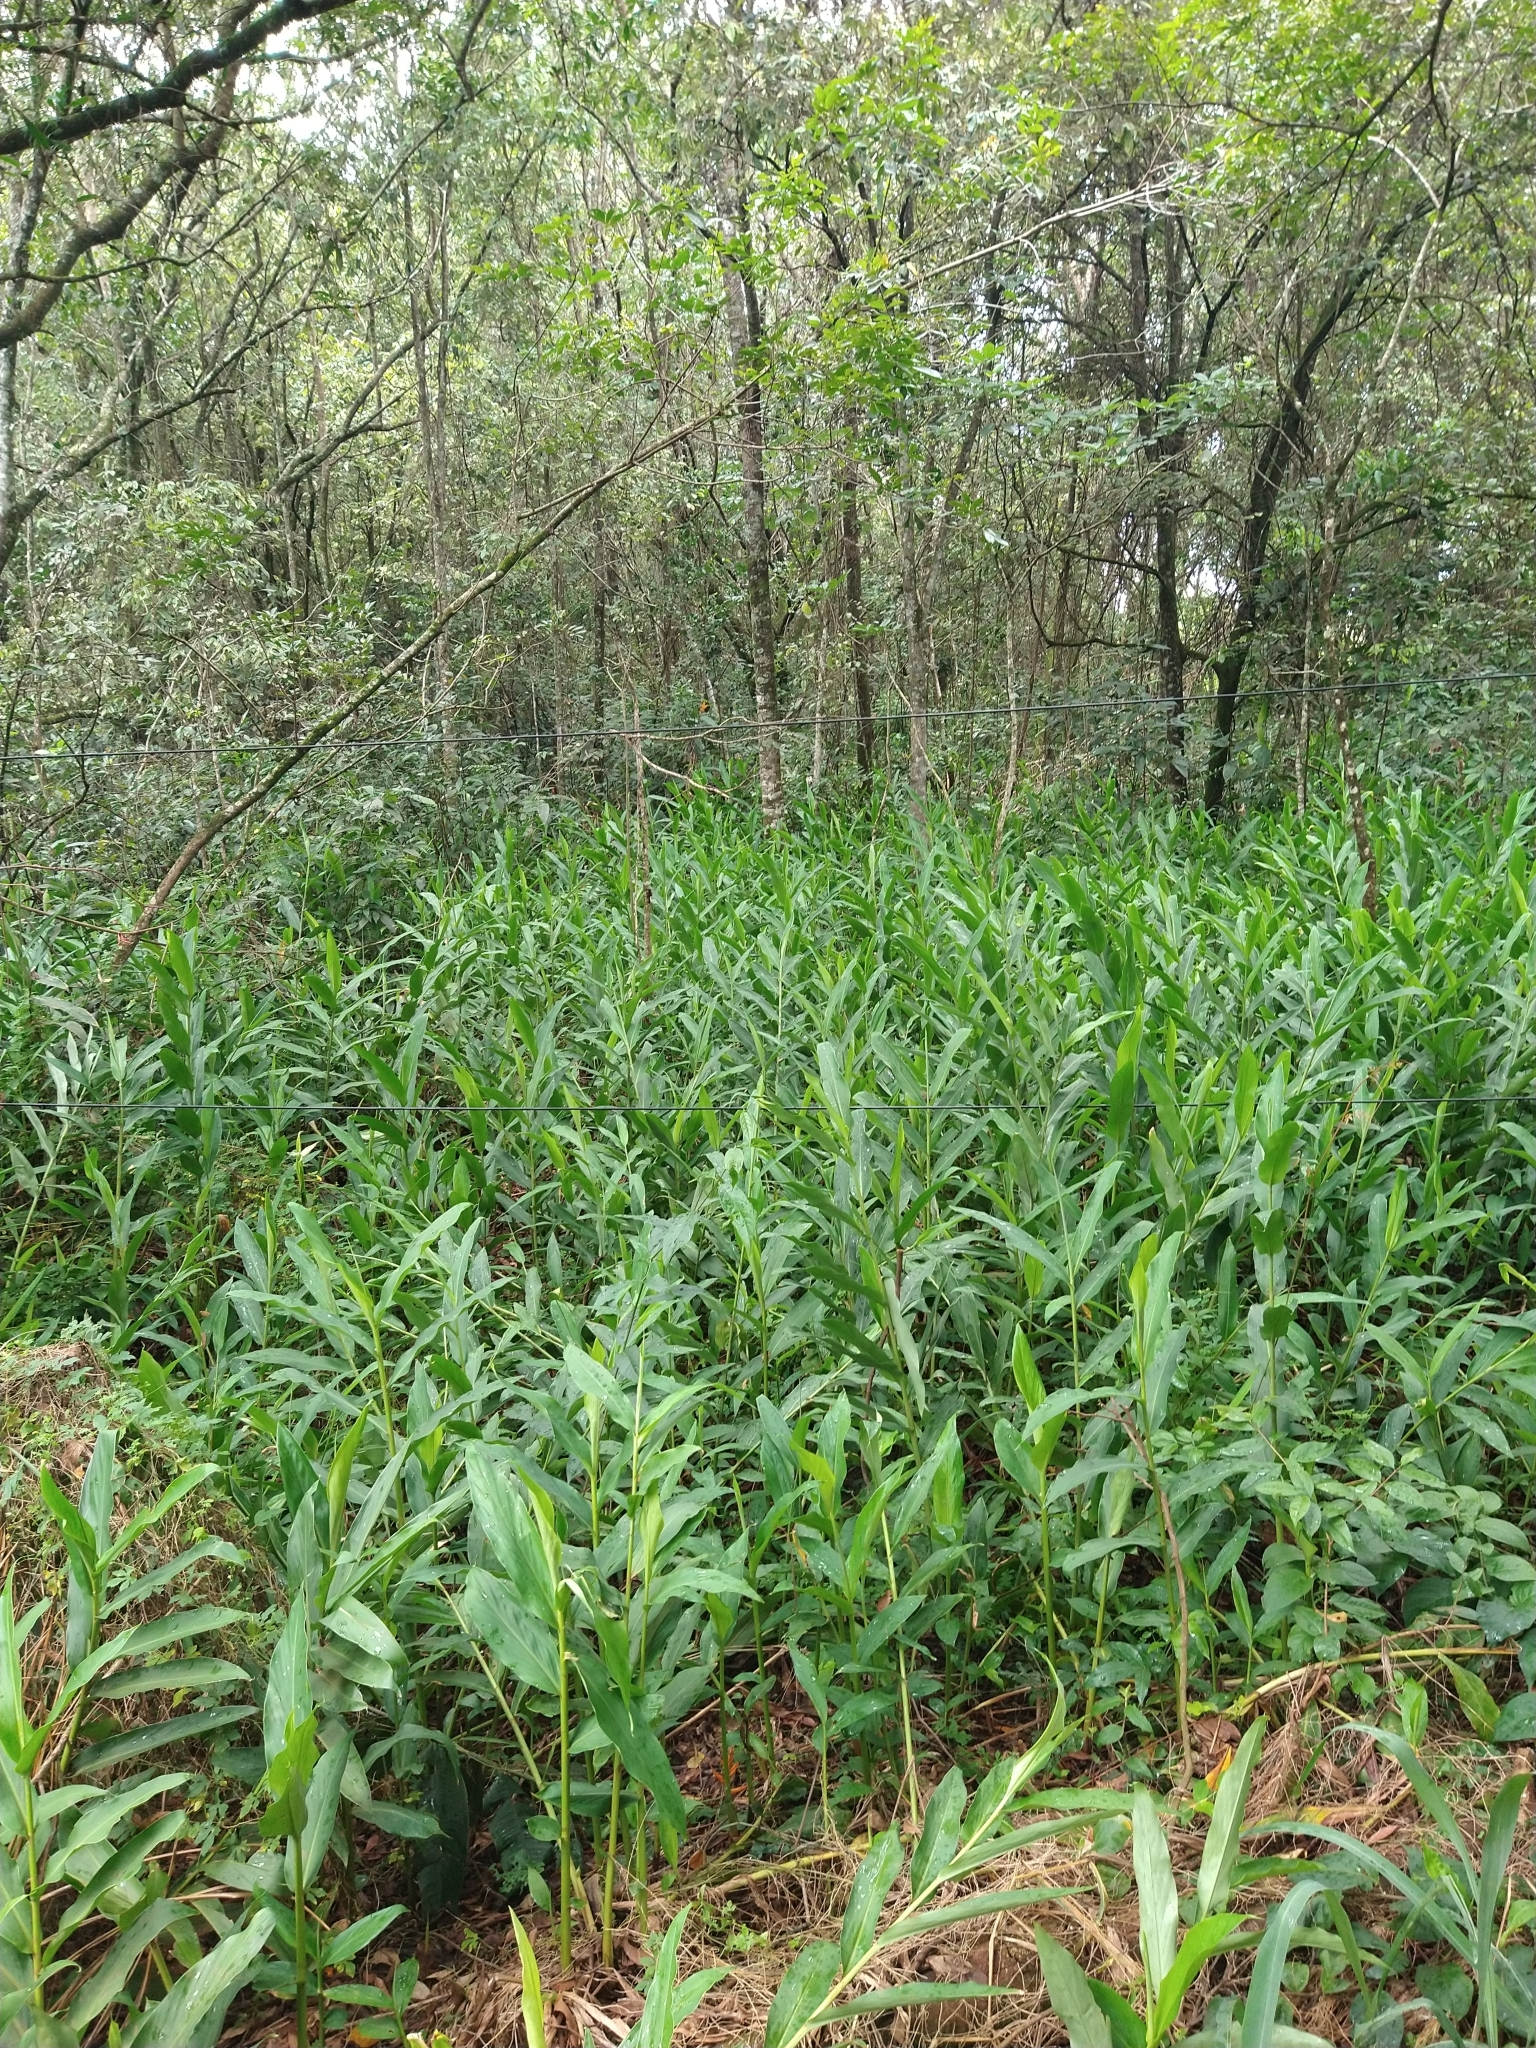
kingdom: Plantae
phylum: Tracheophyta
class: Liliopsida
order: Zingiberales
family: Zingiberaceae
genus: Hedychium
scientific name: Hedychium coronarium
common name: White garland-lily
